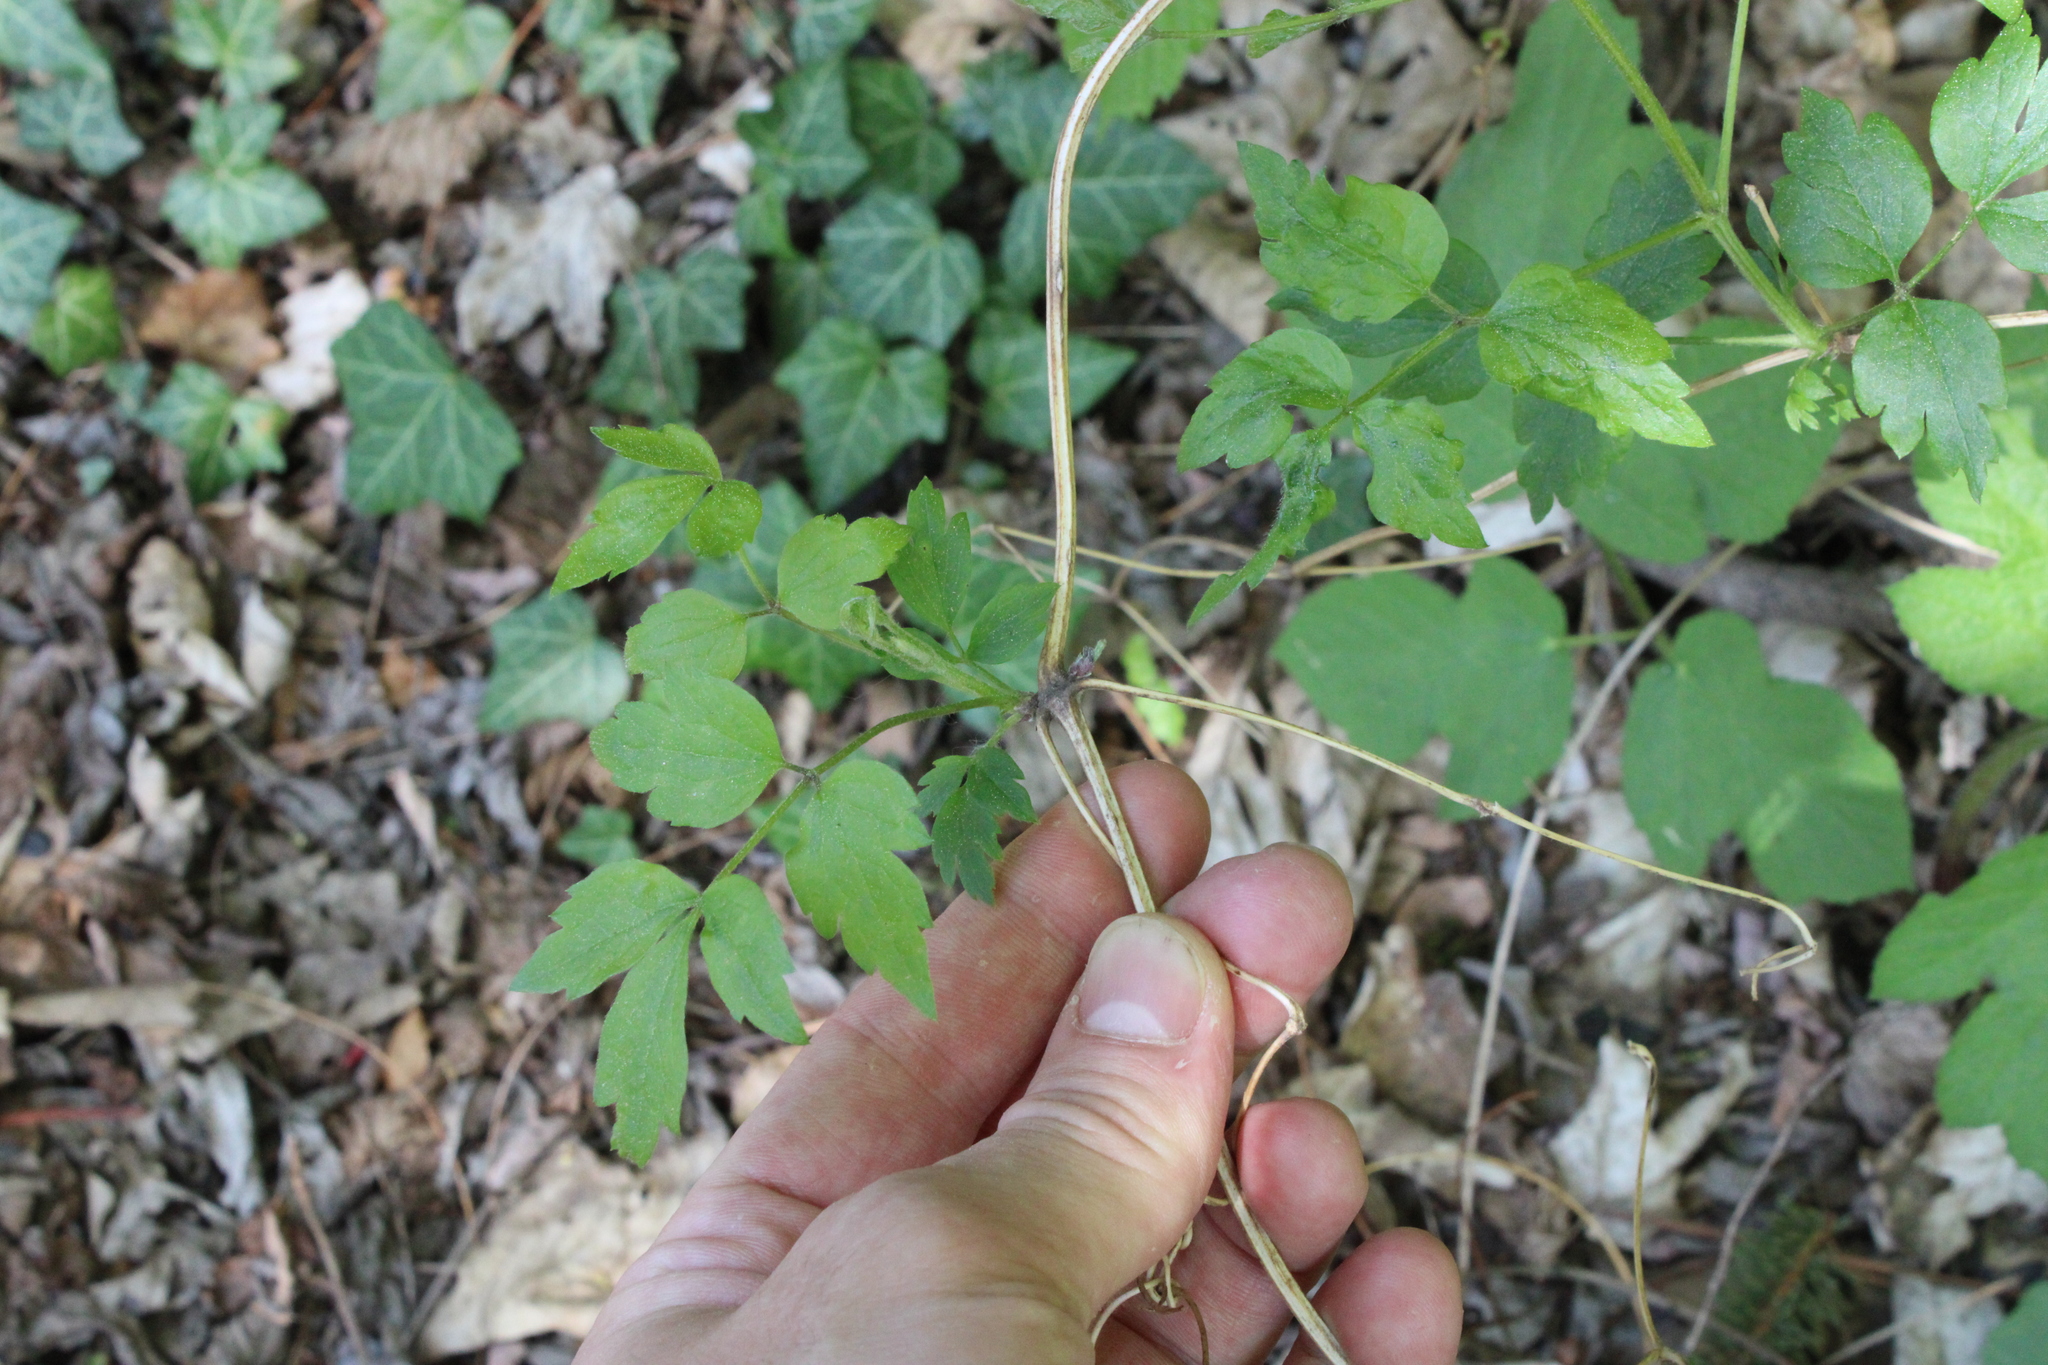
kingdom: Plantae
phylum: Tracheophyta
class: Magnoliopsida
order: Ranunculales
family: Ranunculaceae
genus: Clematis
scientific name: Clematis vitalba
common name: Evergreen clematis
